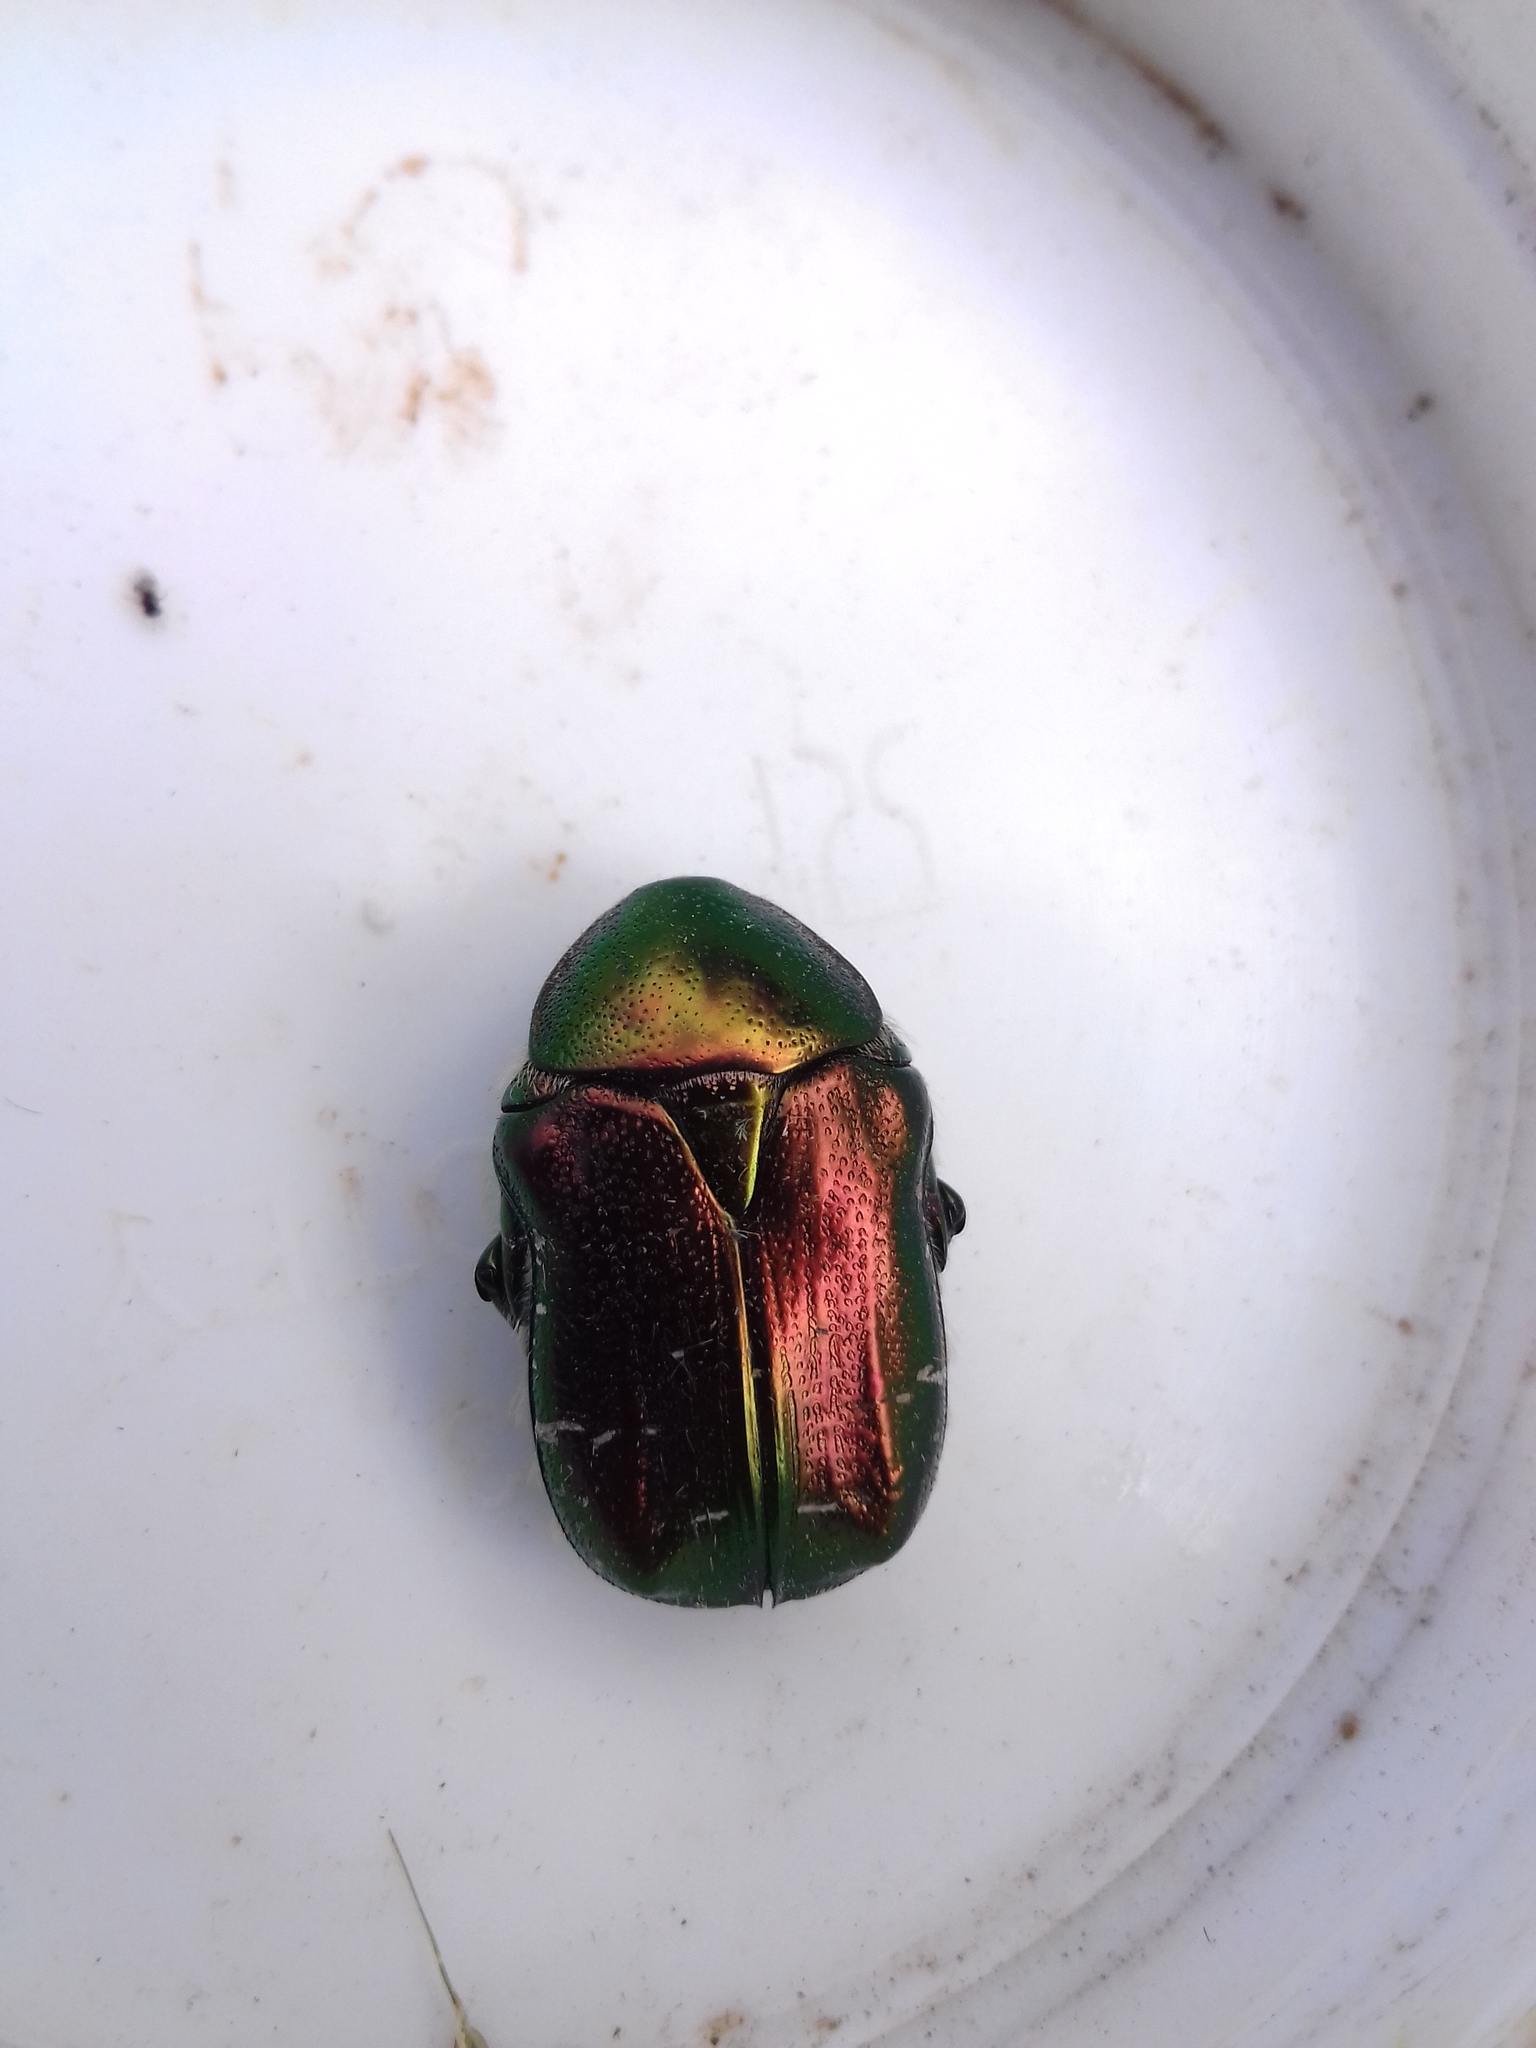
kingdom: Animalia
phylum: Arthropoda
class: Insecta
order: Coleoptera
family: Scarabaeidae
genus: Cetonia
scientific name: Cetonia aurata
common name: Rose chafer
